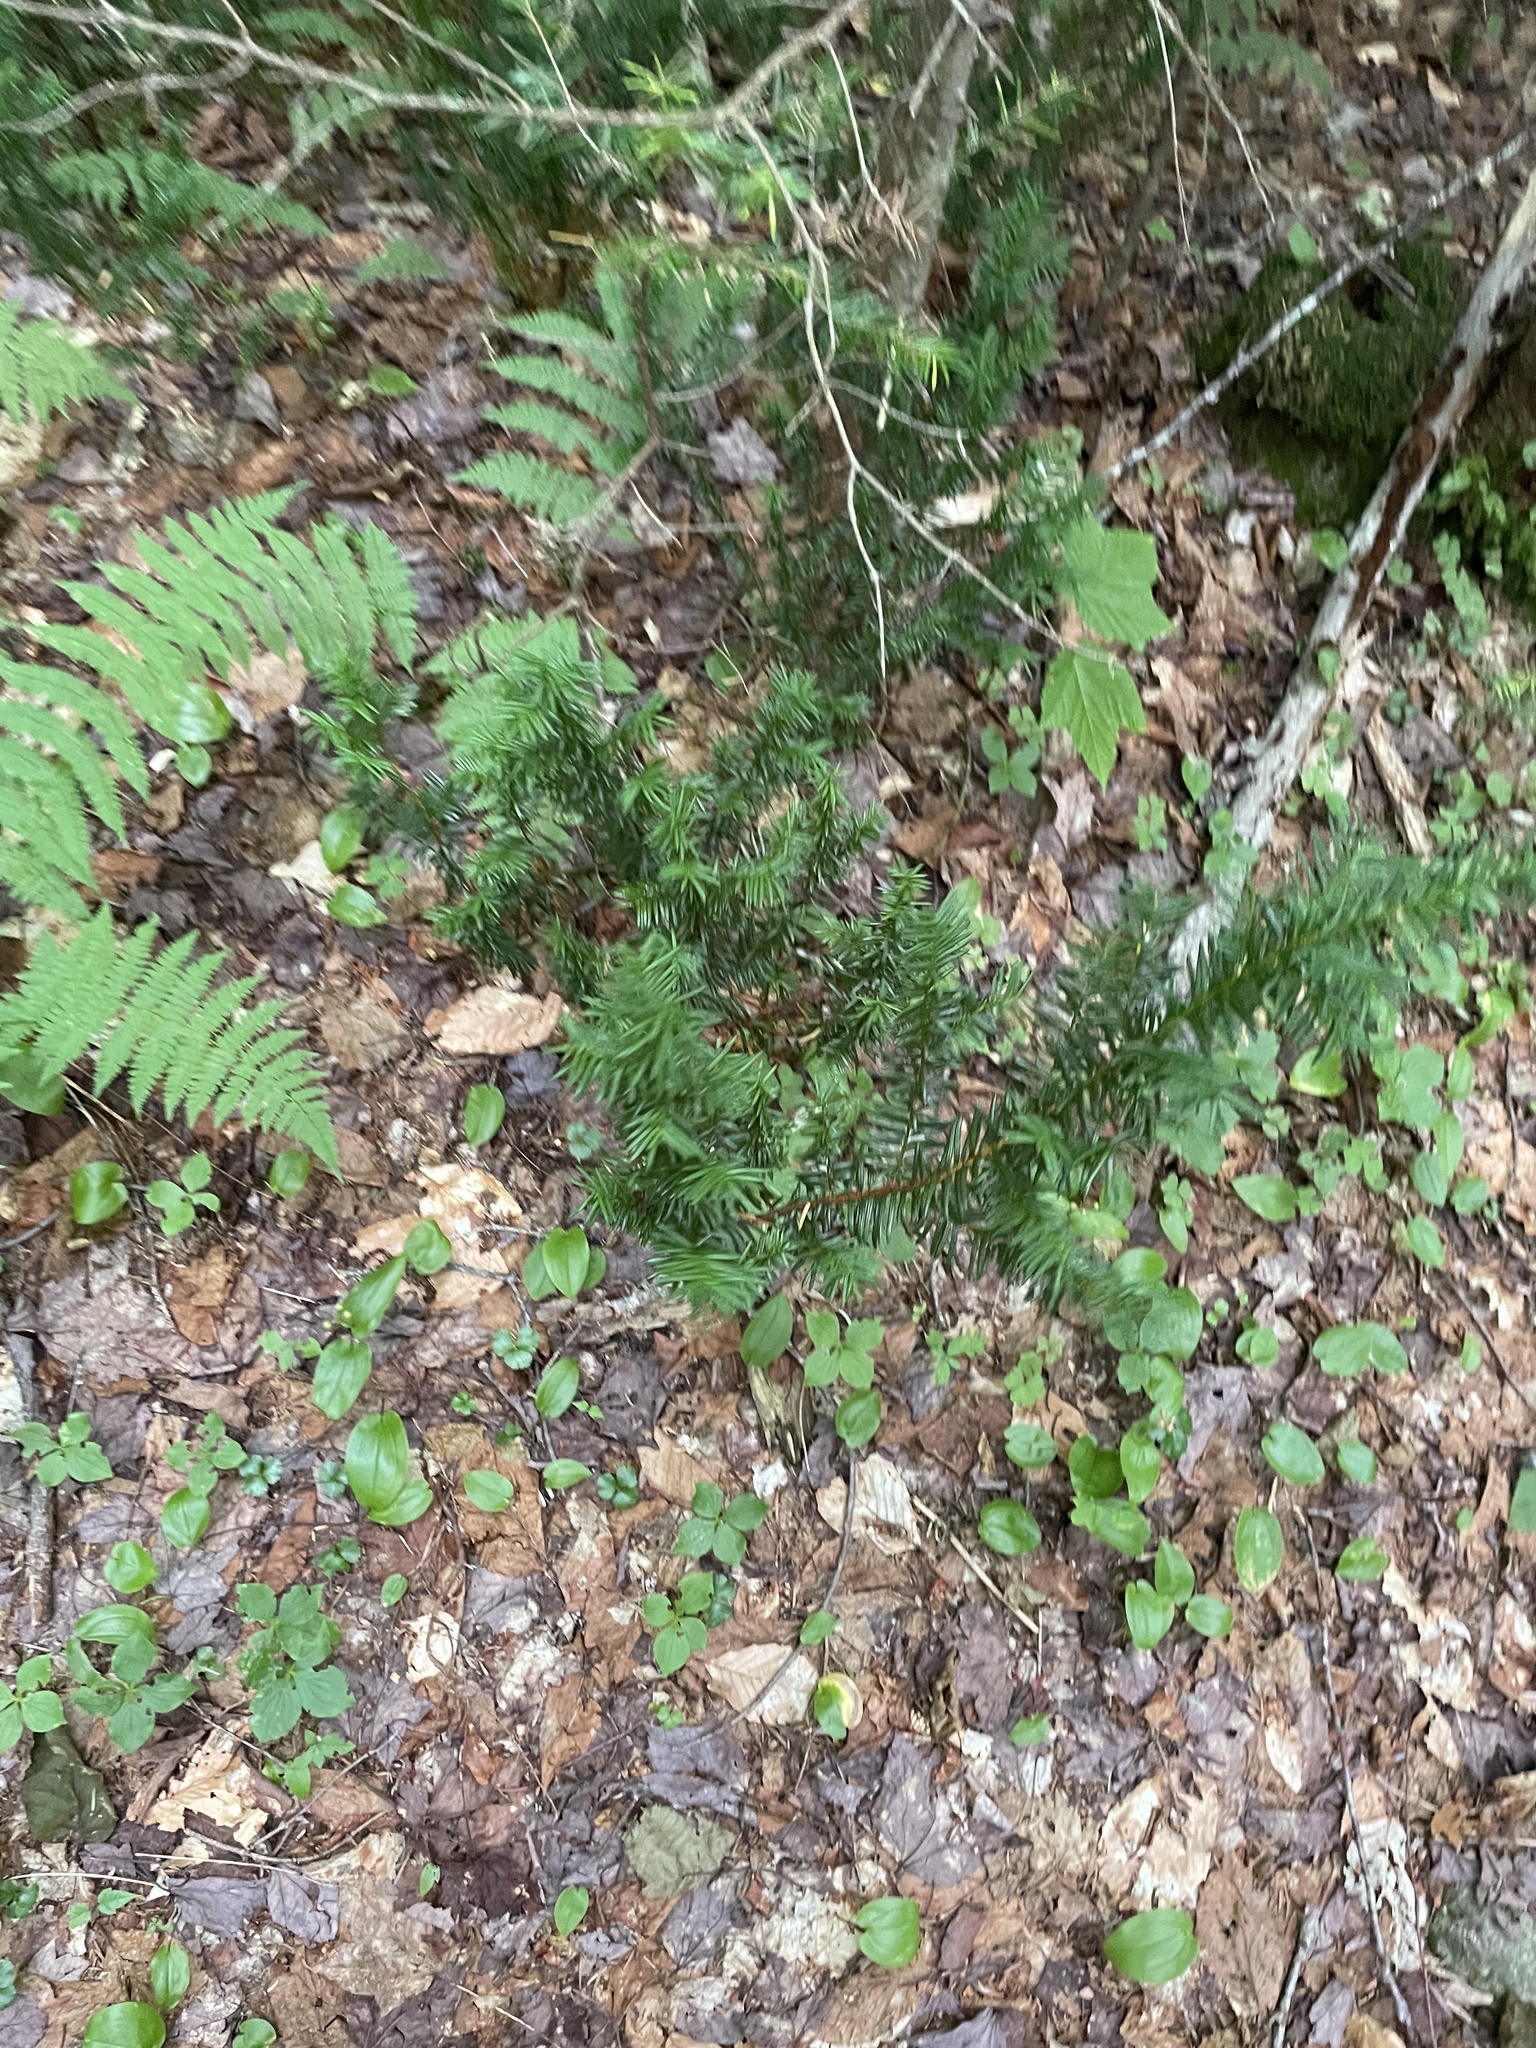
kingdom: Plantae
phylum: Tracheophyta
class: Pinopsida
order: Pinales
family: Taxaceae
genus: Taxus
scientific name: Taxus canadensis
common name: American yew
